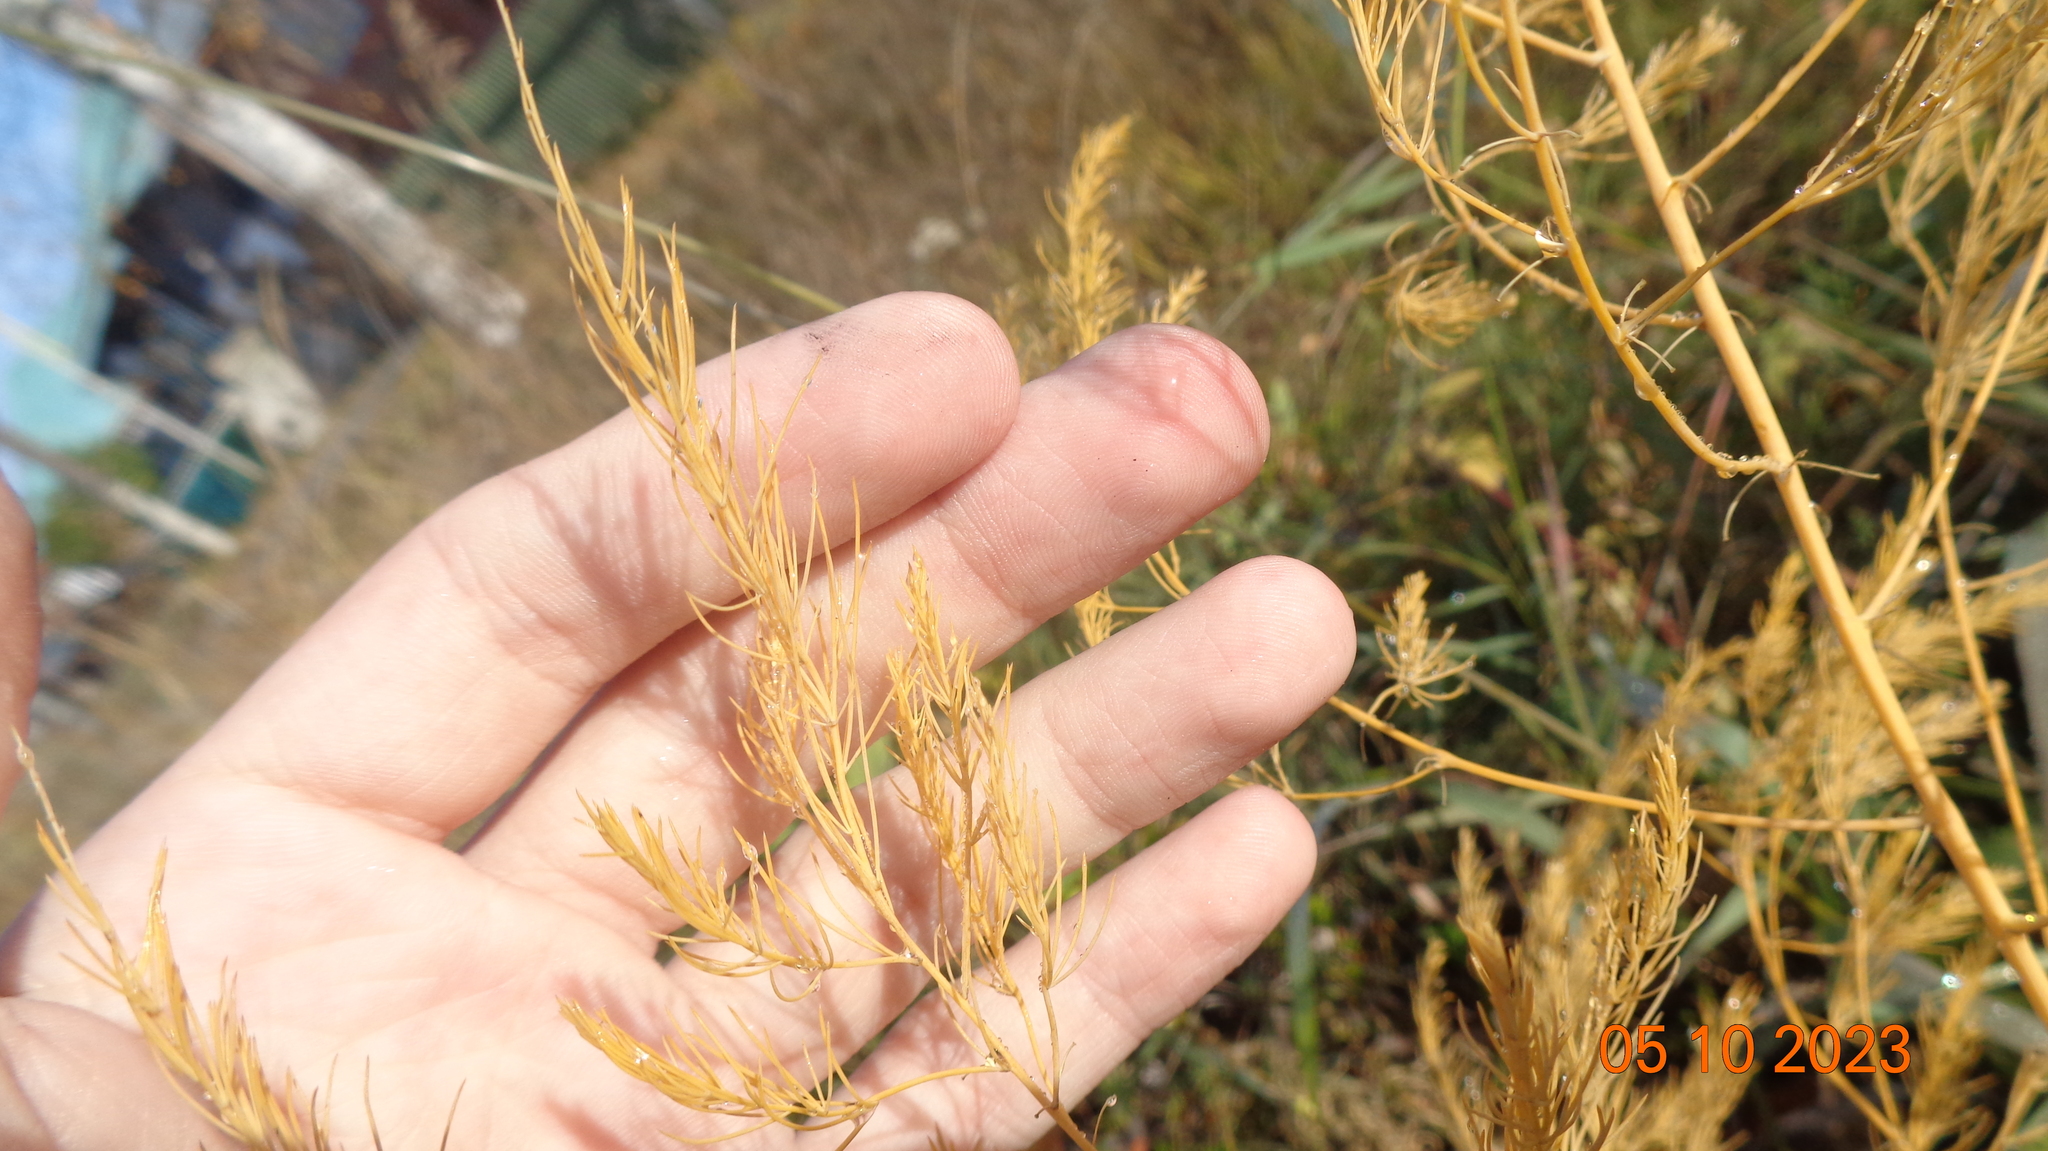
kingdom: Plantae
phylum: Tracheophyta
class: Liliopsida
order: Asparagales
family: Asparagaceae
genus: Asparagus
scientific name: Asparagus officinalis
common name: Garden asparagus
